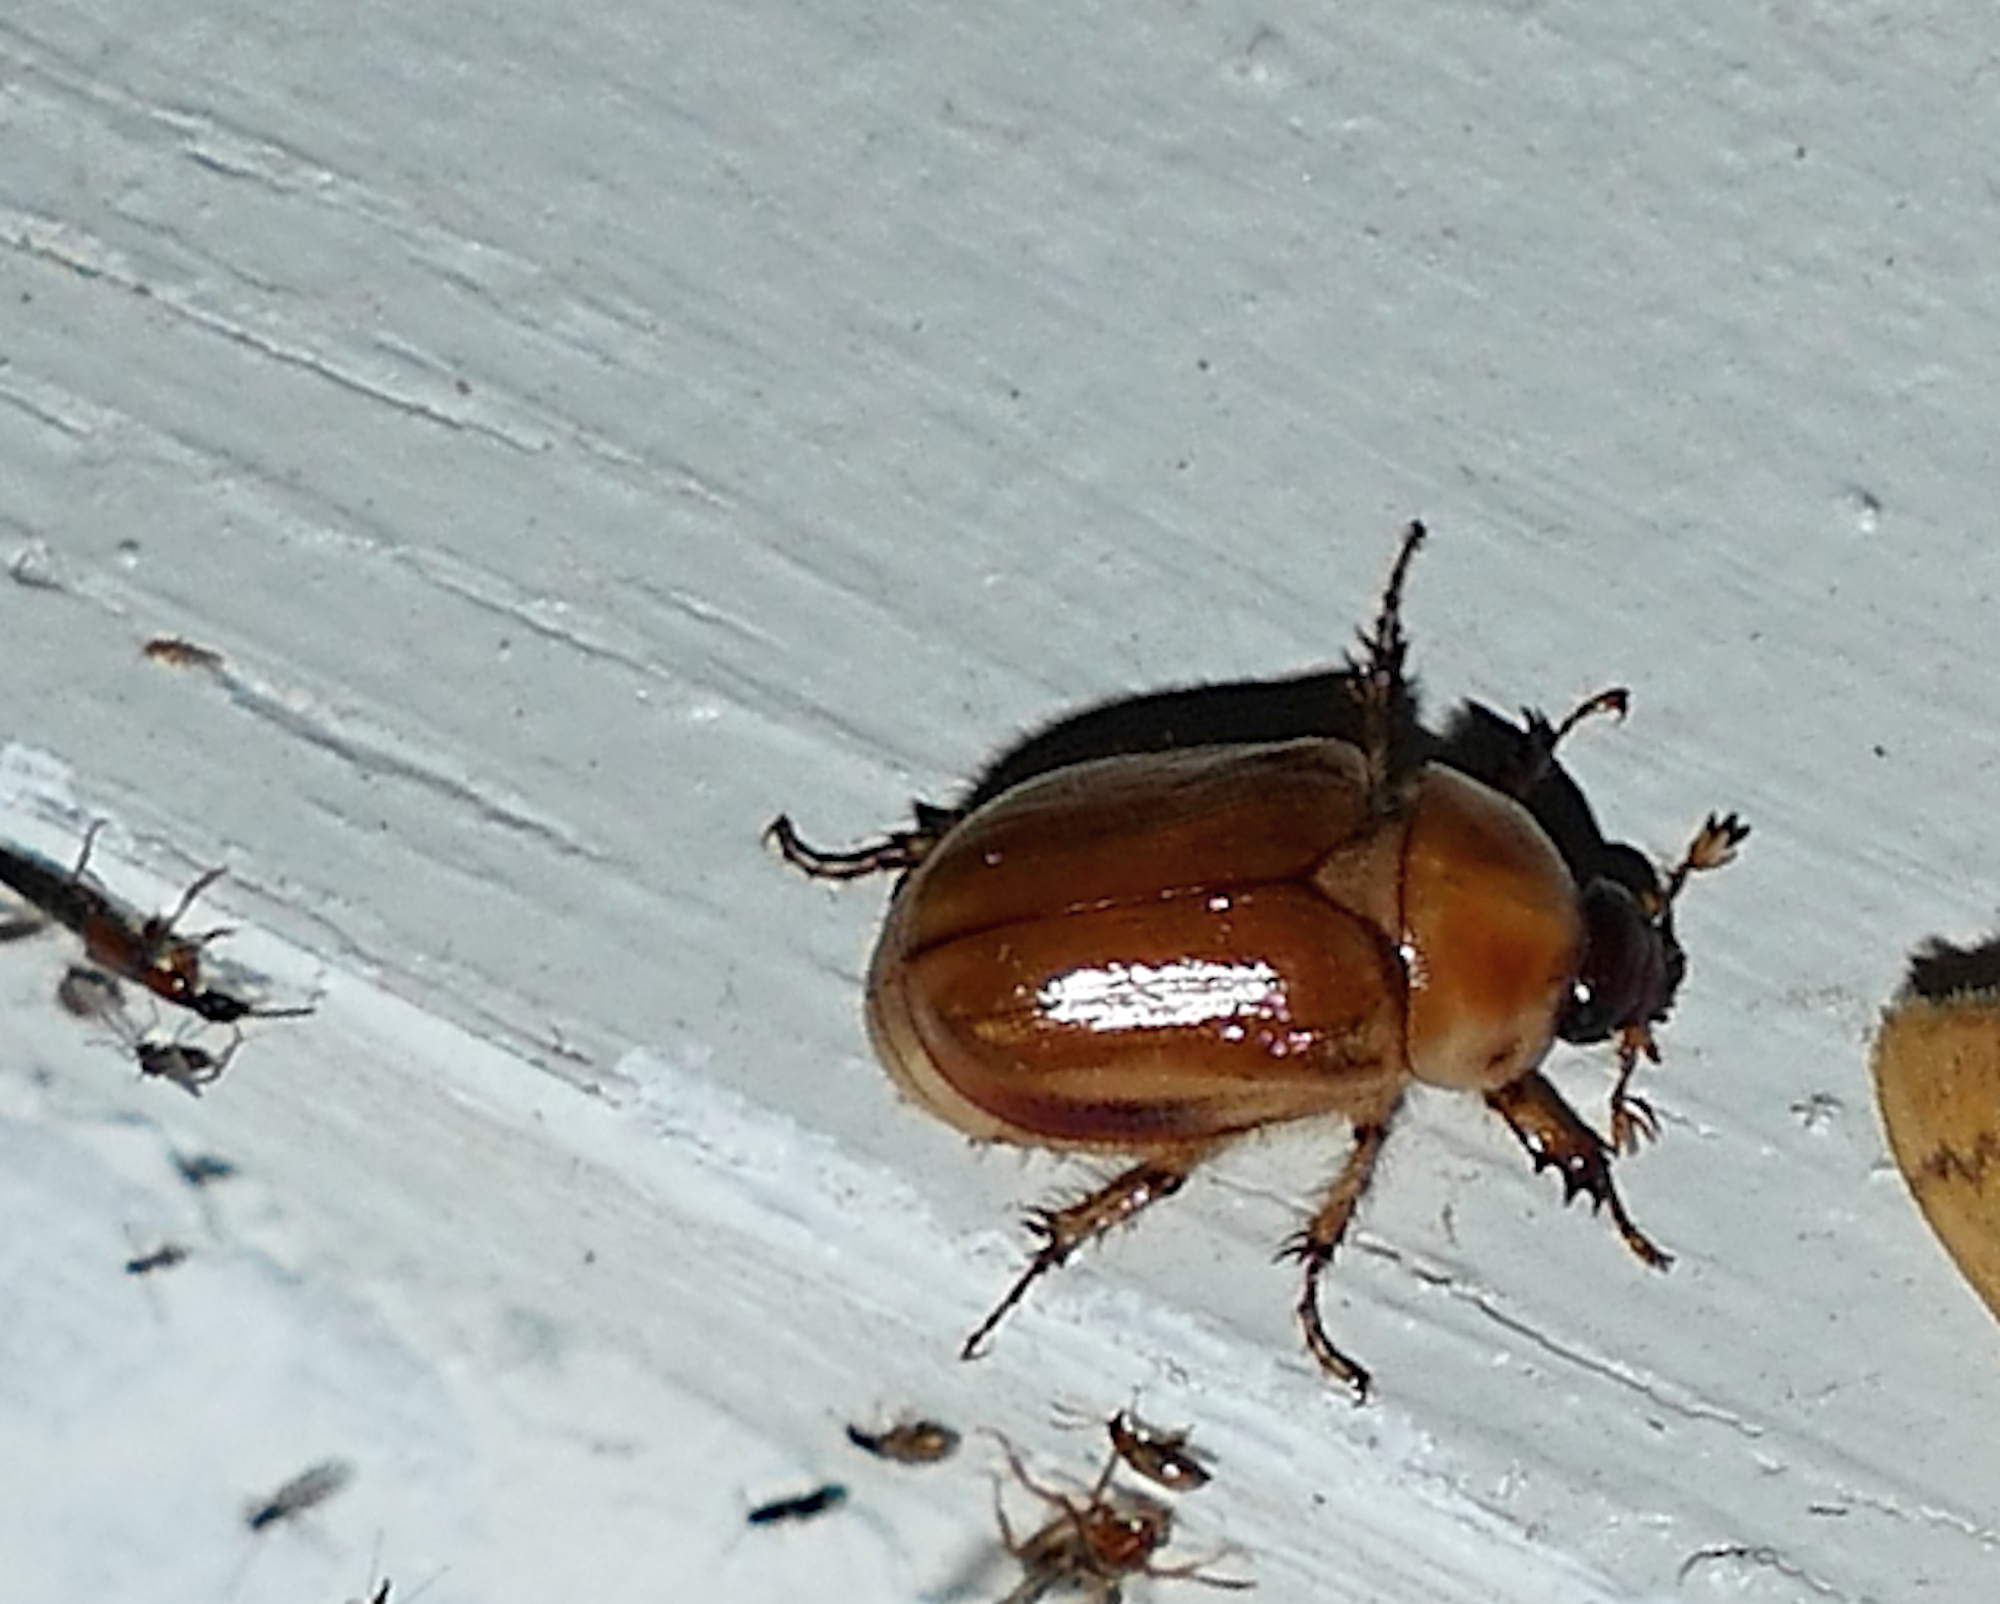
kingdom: Animalia
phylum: Arthropoda
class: Insecta
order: Coleoptera
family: Scarabaeidae
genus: Cyclocephala
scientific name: Cyclocephala pasadenae
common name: Pasadena masked chafer
